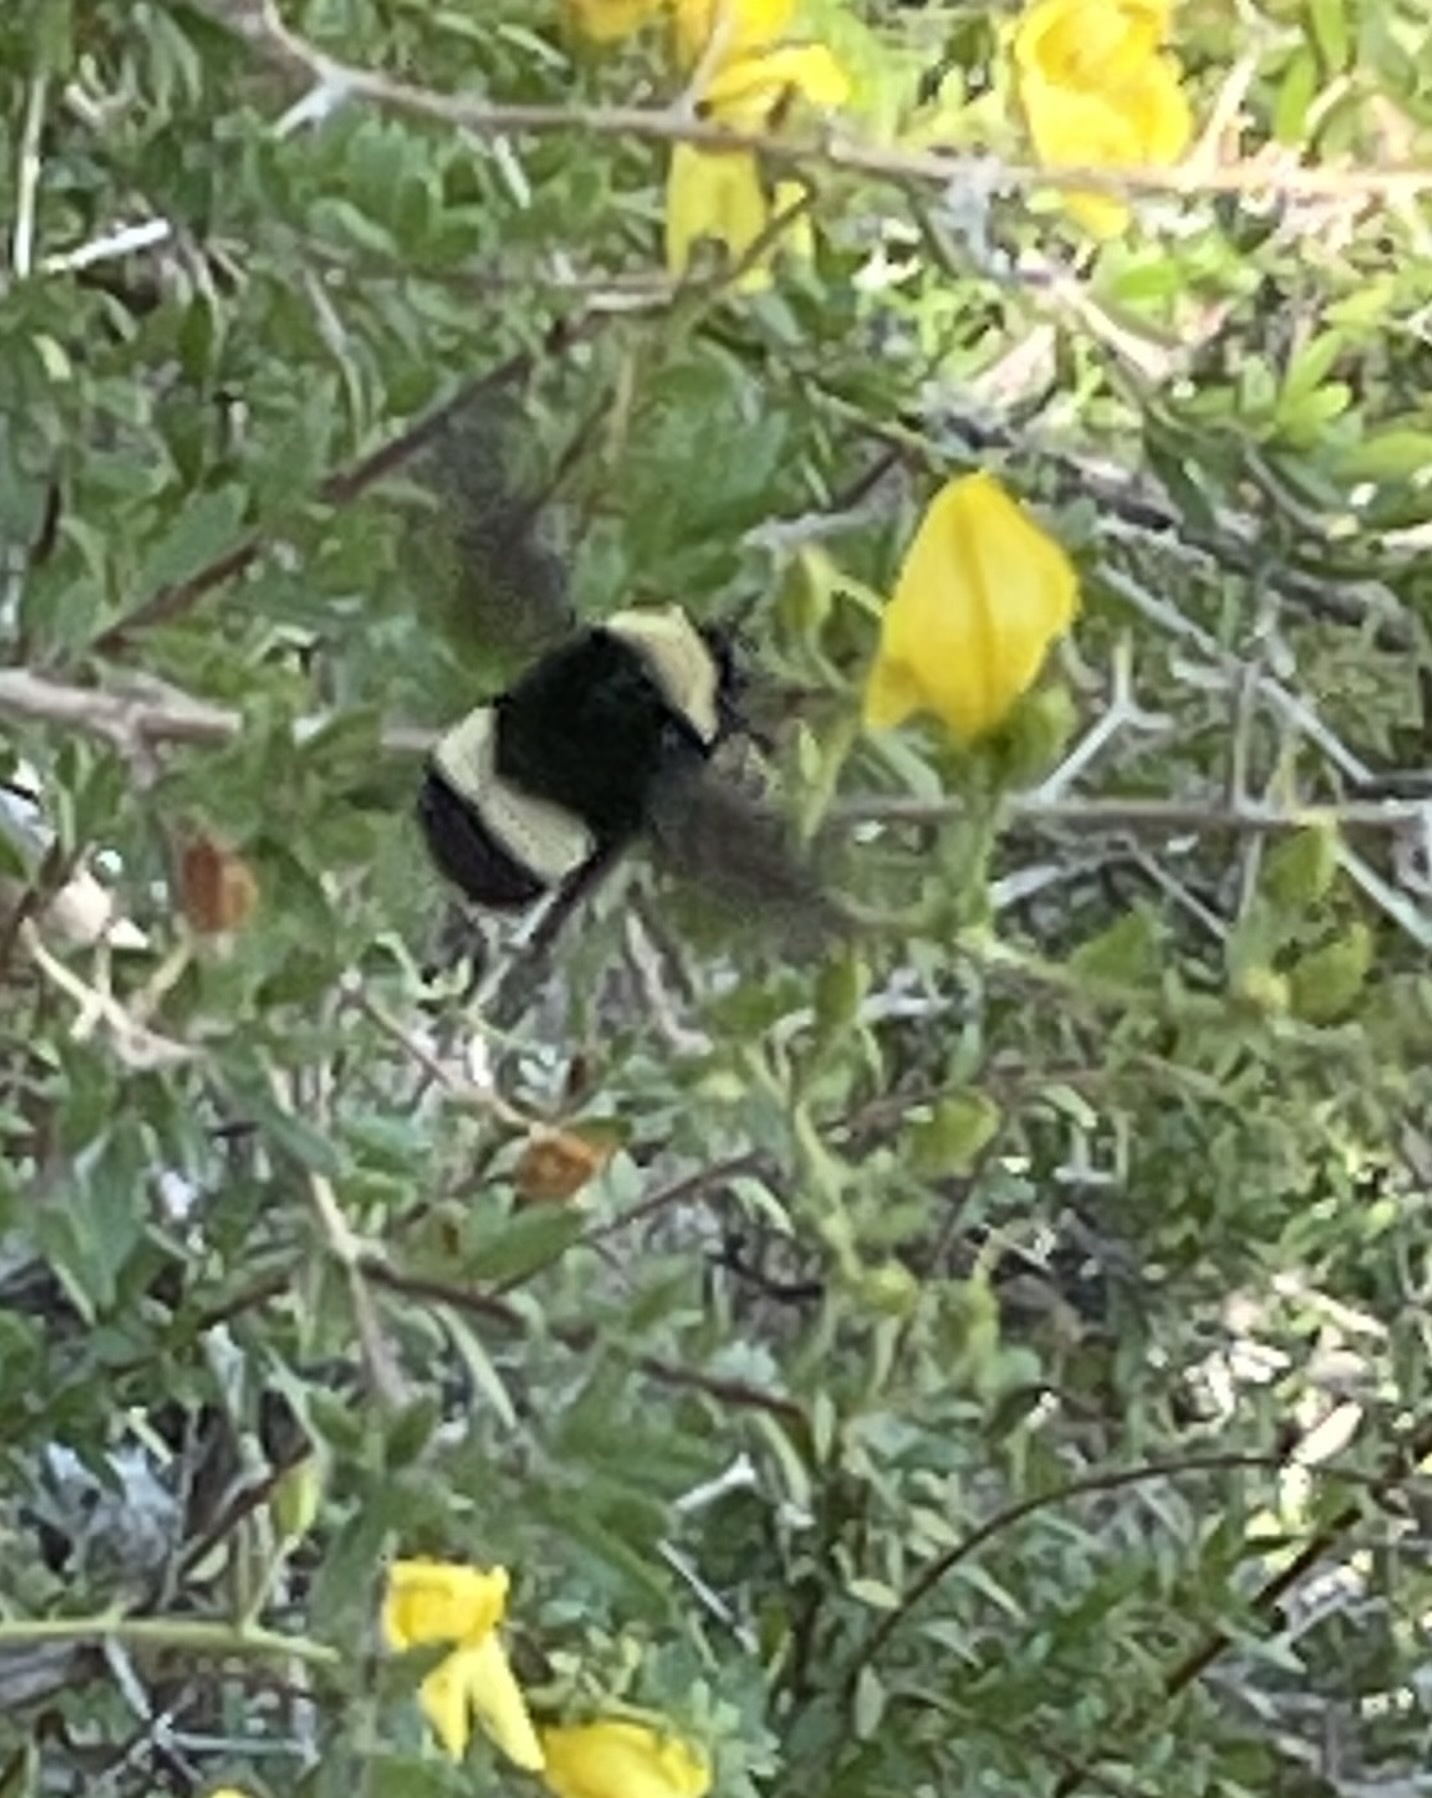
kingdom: Animalia
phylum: Arthropoda
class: Insecta
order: Hymenoptera
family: Apidae
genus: Bombus
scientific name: Bombus crotchii
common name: Crotch bumble bee
